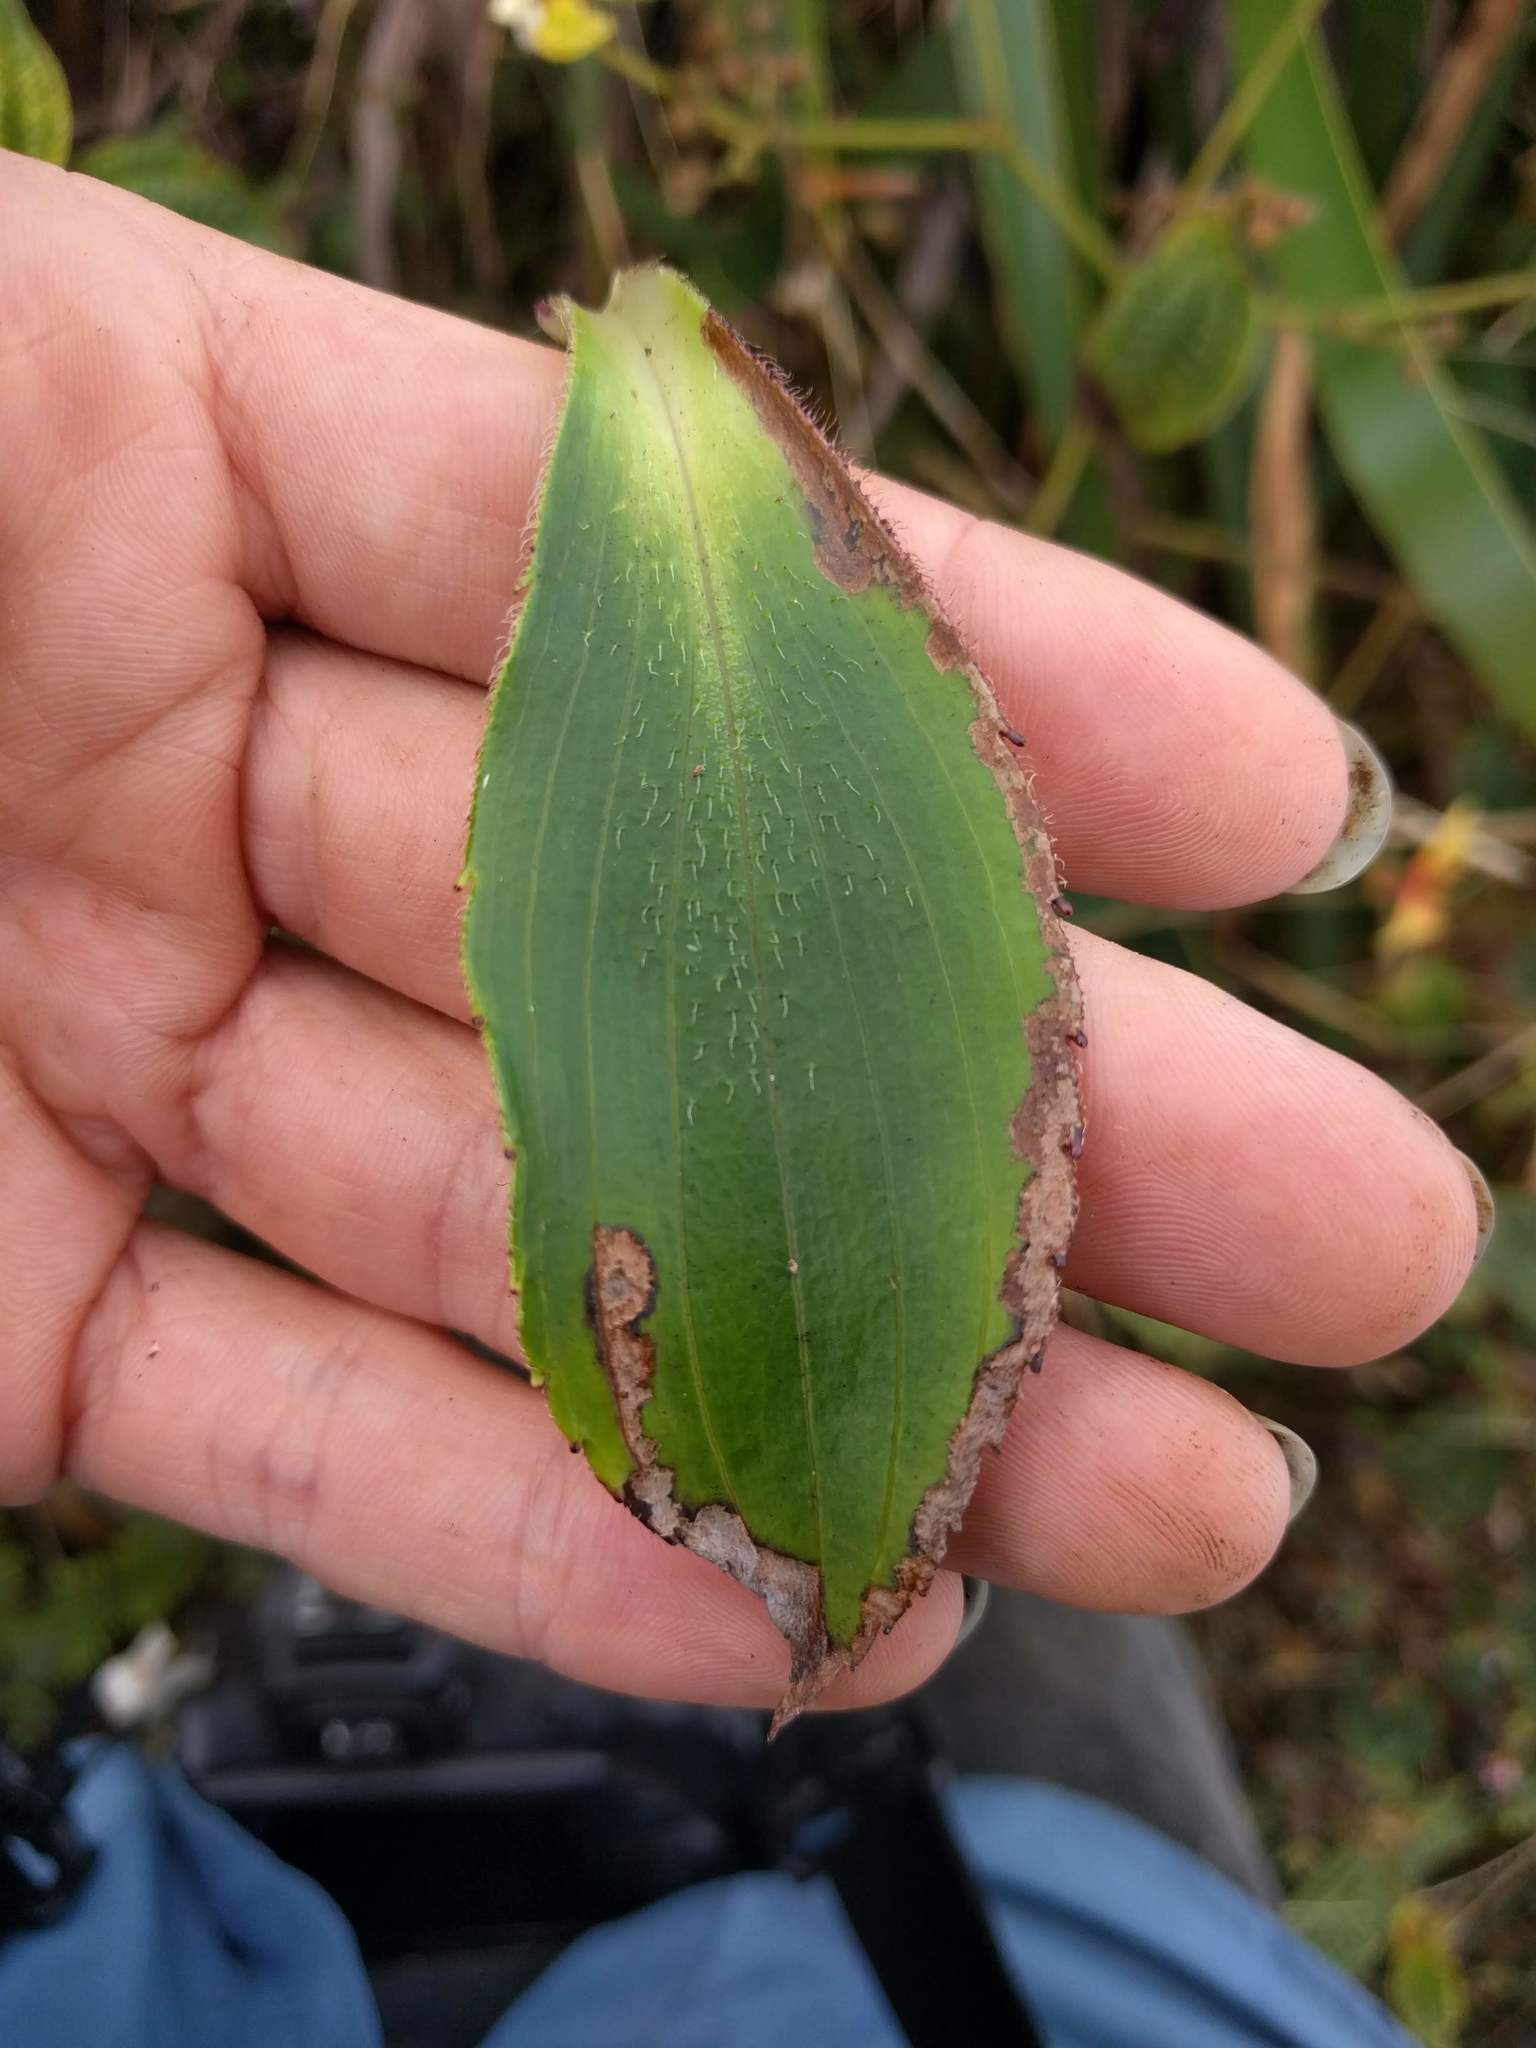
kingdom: Animalia
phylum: Arthropoda
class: Insecta
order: Lepidoptera
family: Gracillariidae
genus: Philodoria
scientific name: Philodoria naenaeiella
